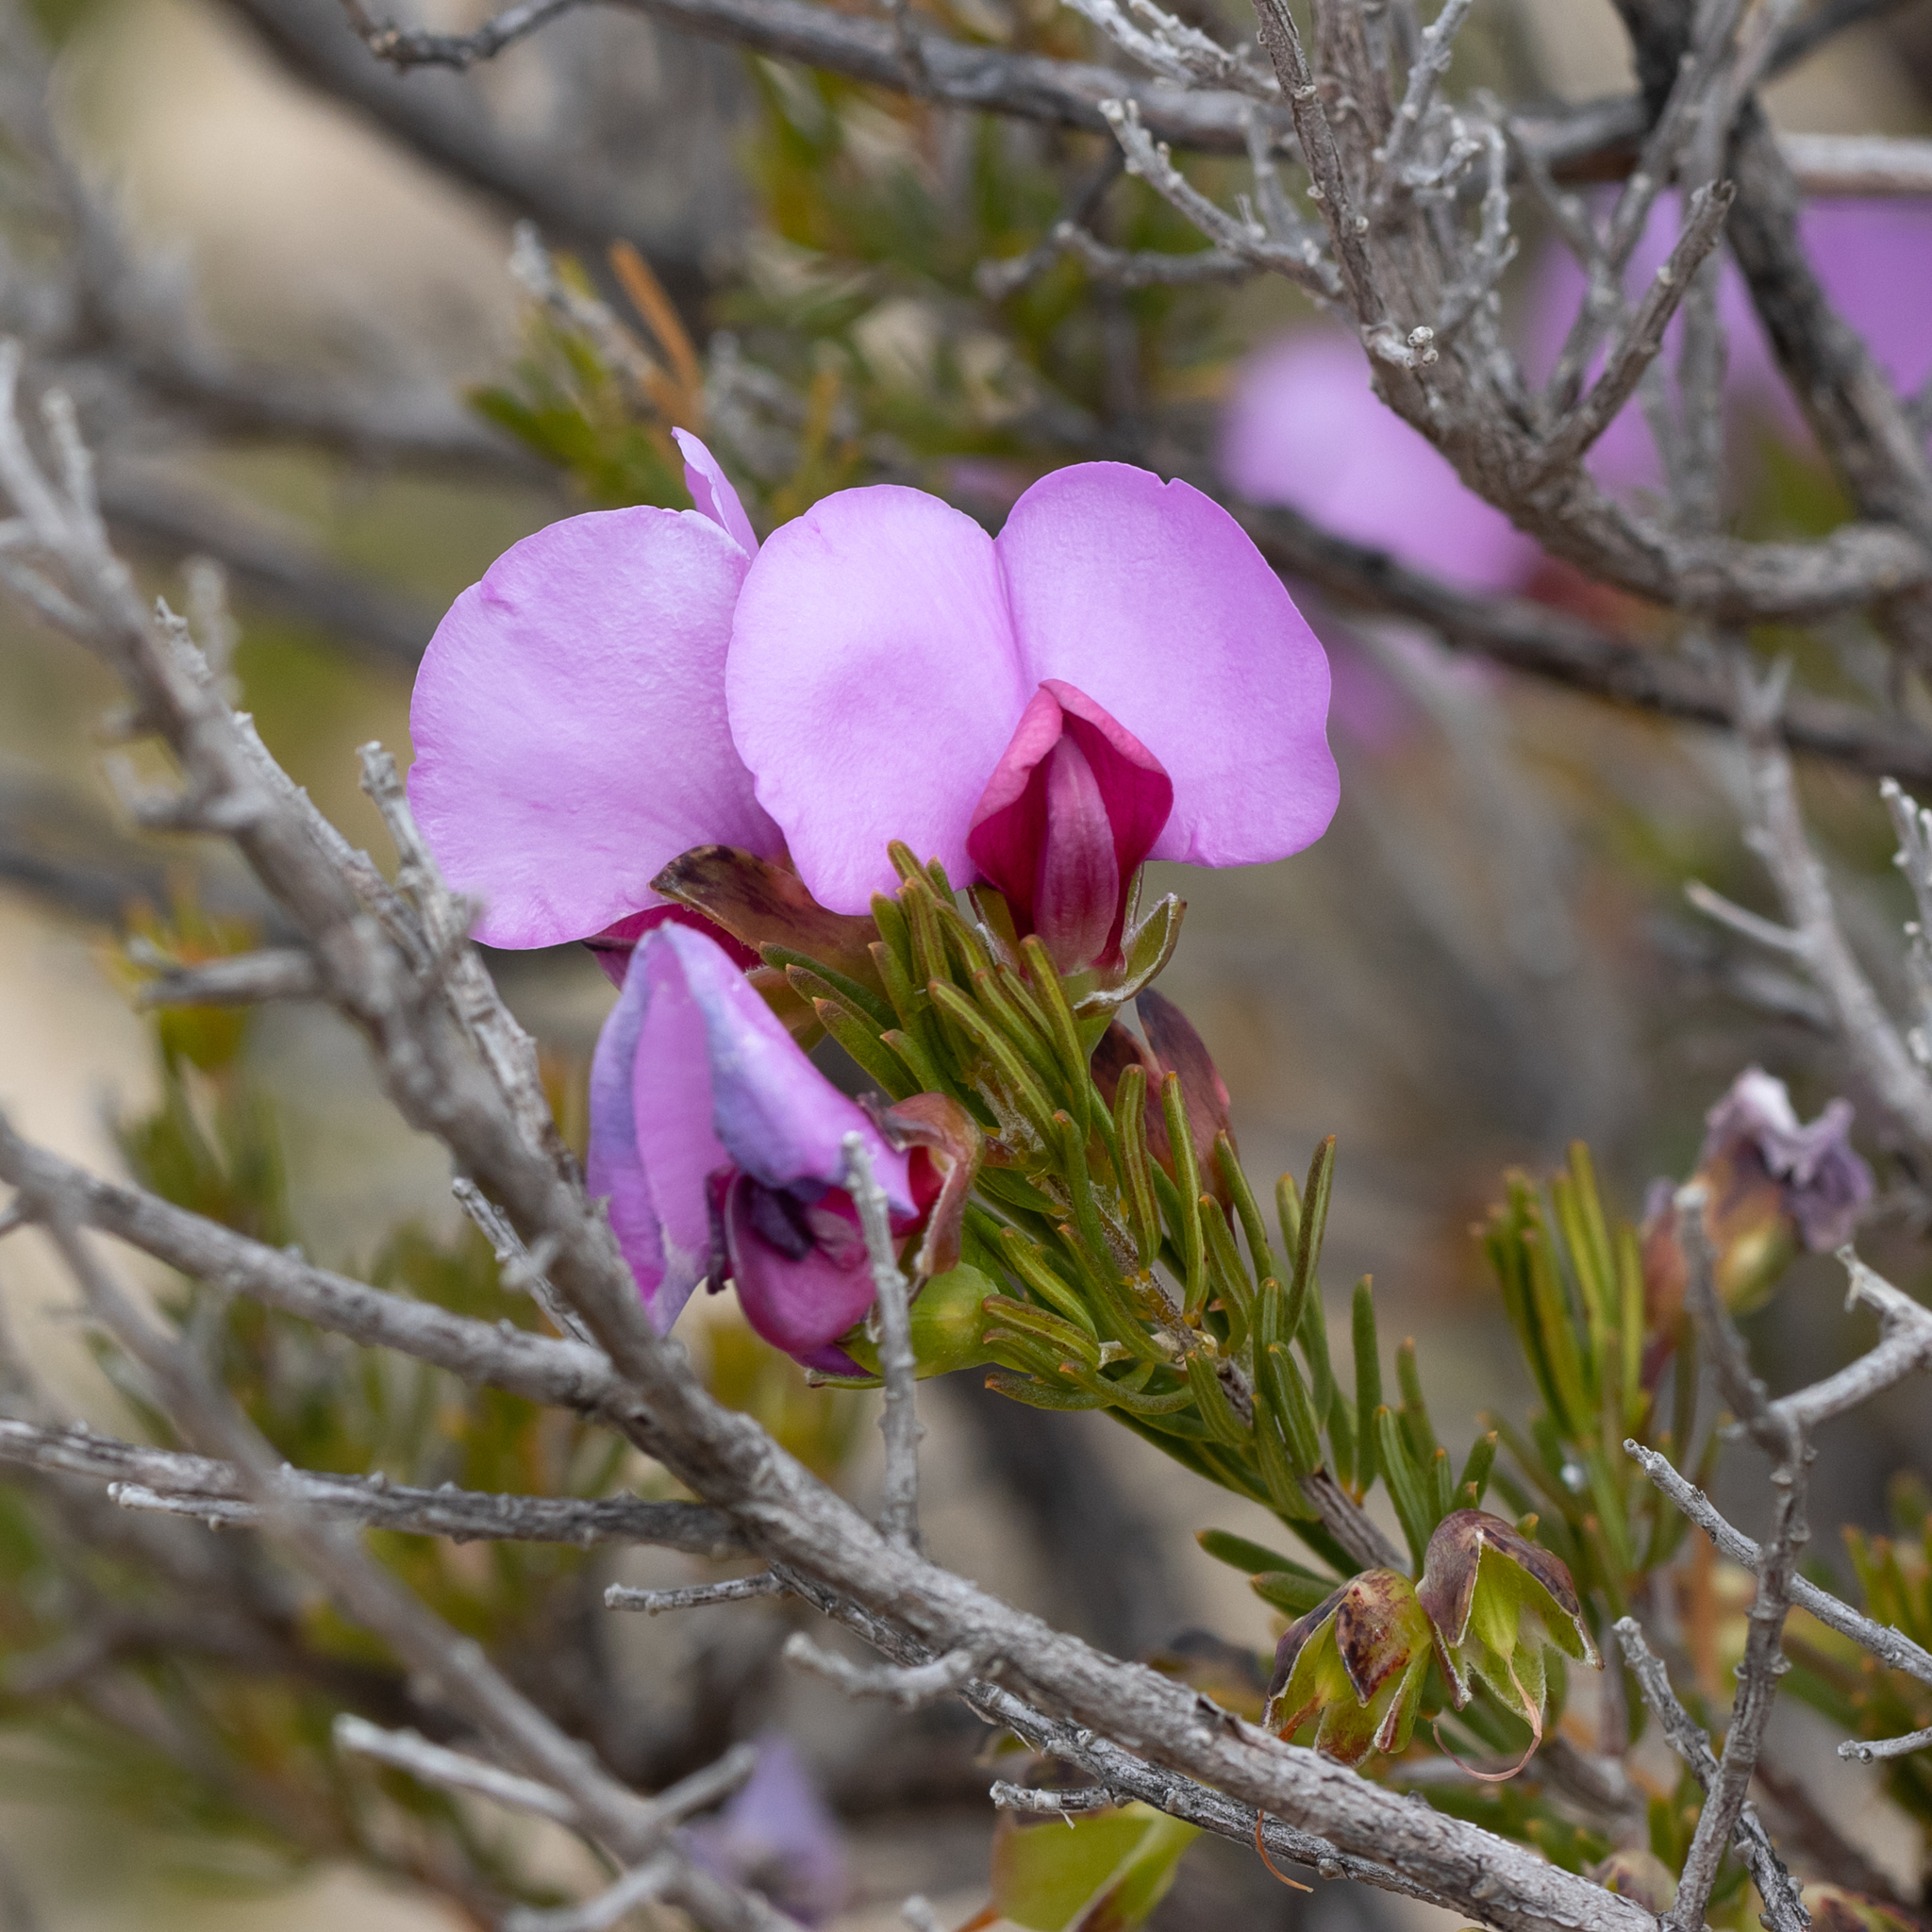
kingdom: Plantae
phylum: Tracheophyta
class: Magnoliopsida
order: Fabales
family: Fabaceae
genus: Gompholobium
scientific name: Gompholobium scabrum
